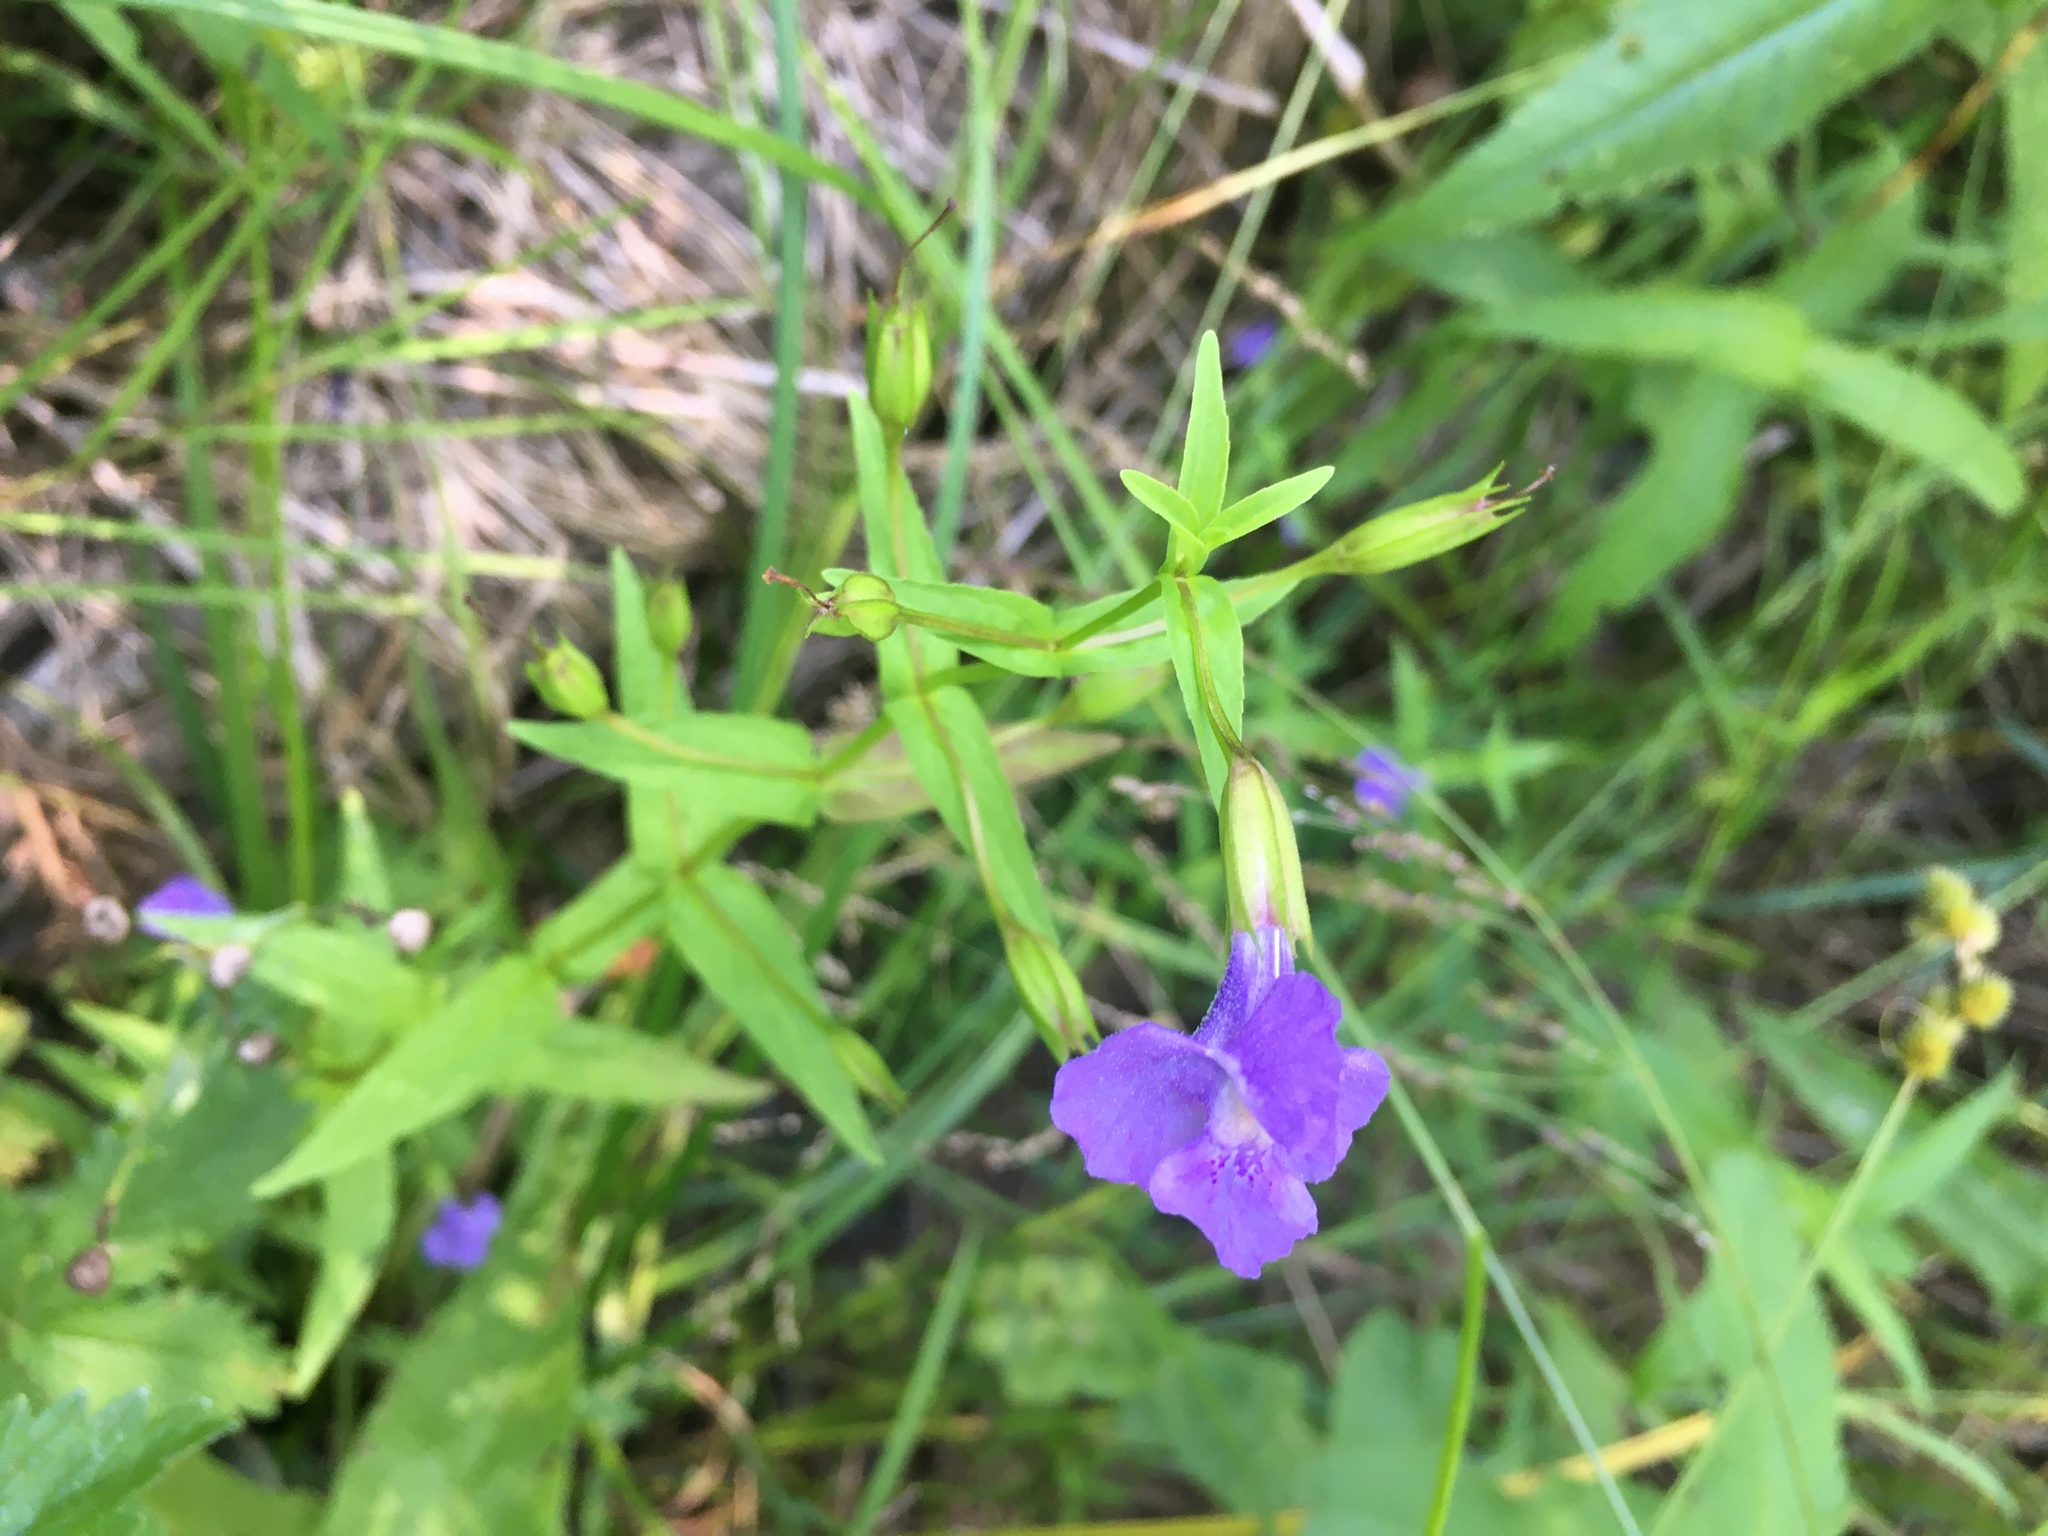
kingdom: Plantae
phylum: Tracheophyta
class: Magnoliopsida
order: Lamiales
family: Phrymaceae
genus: Mimulus
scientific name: Mimulus ringens
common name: Allegheny monkeyflower
